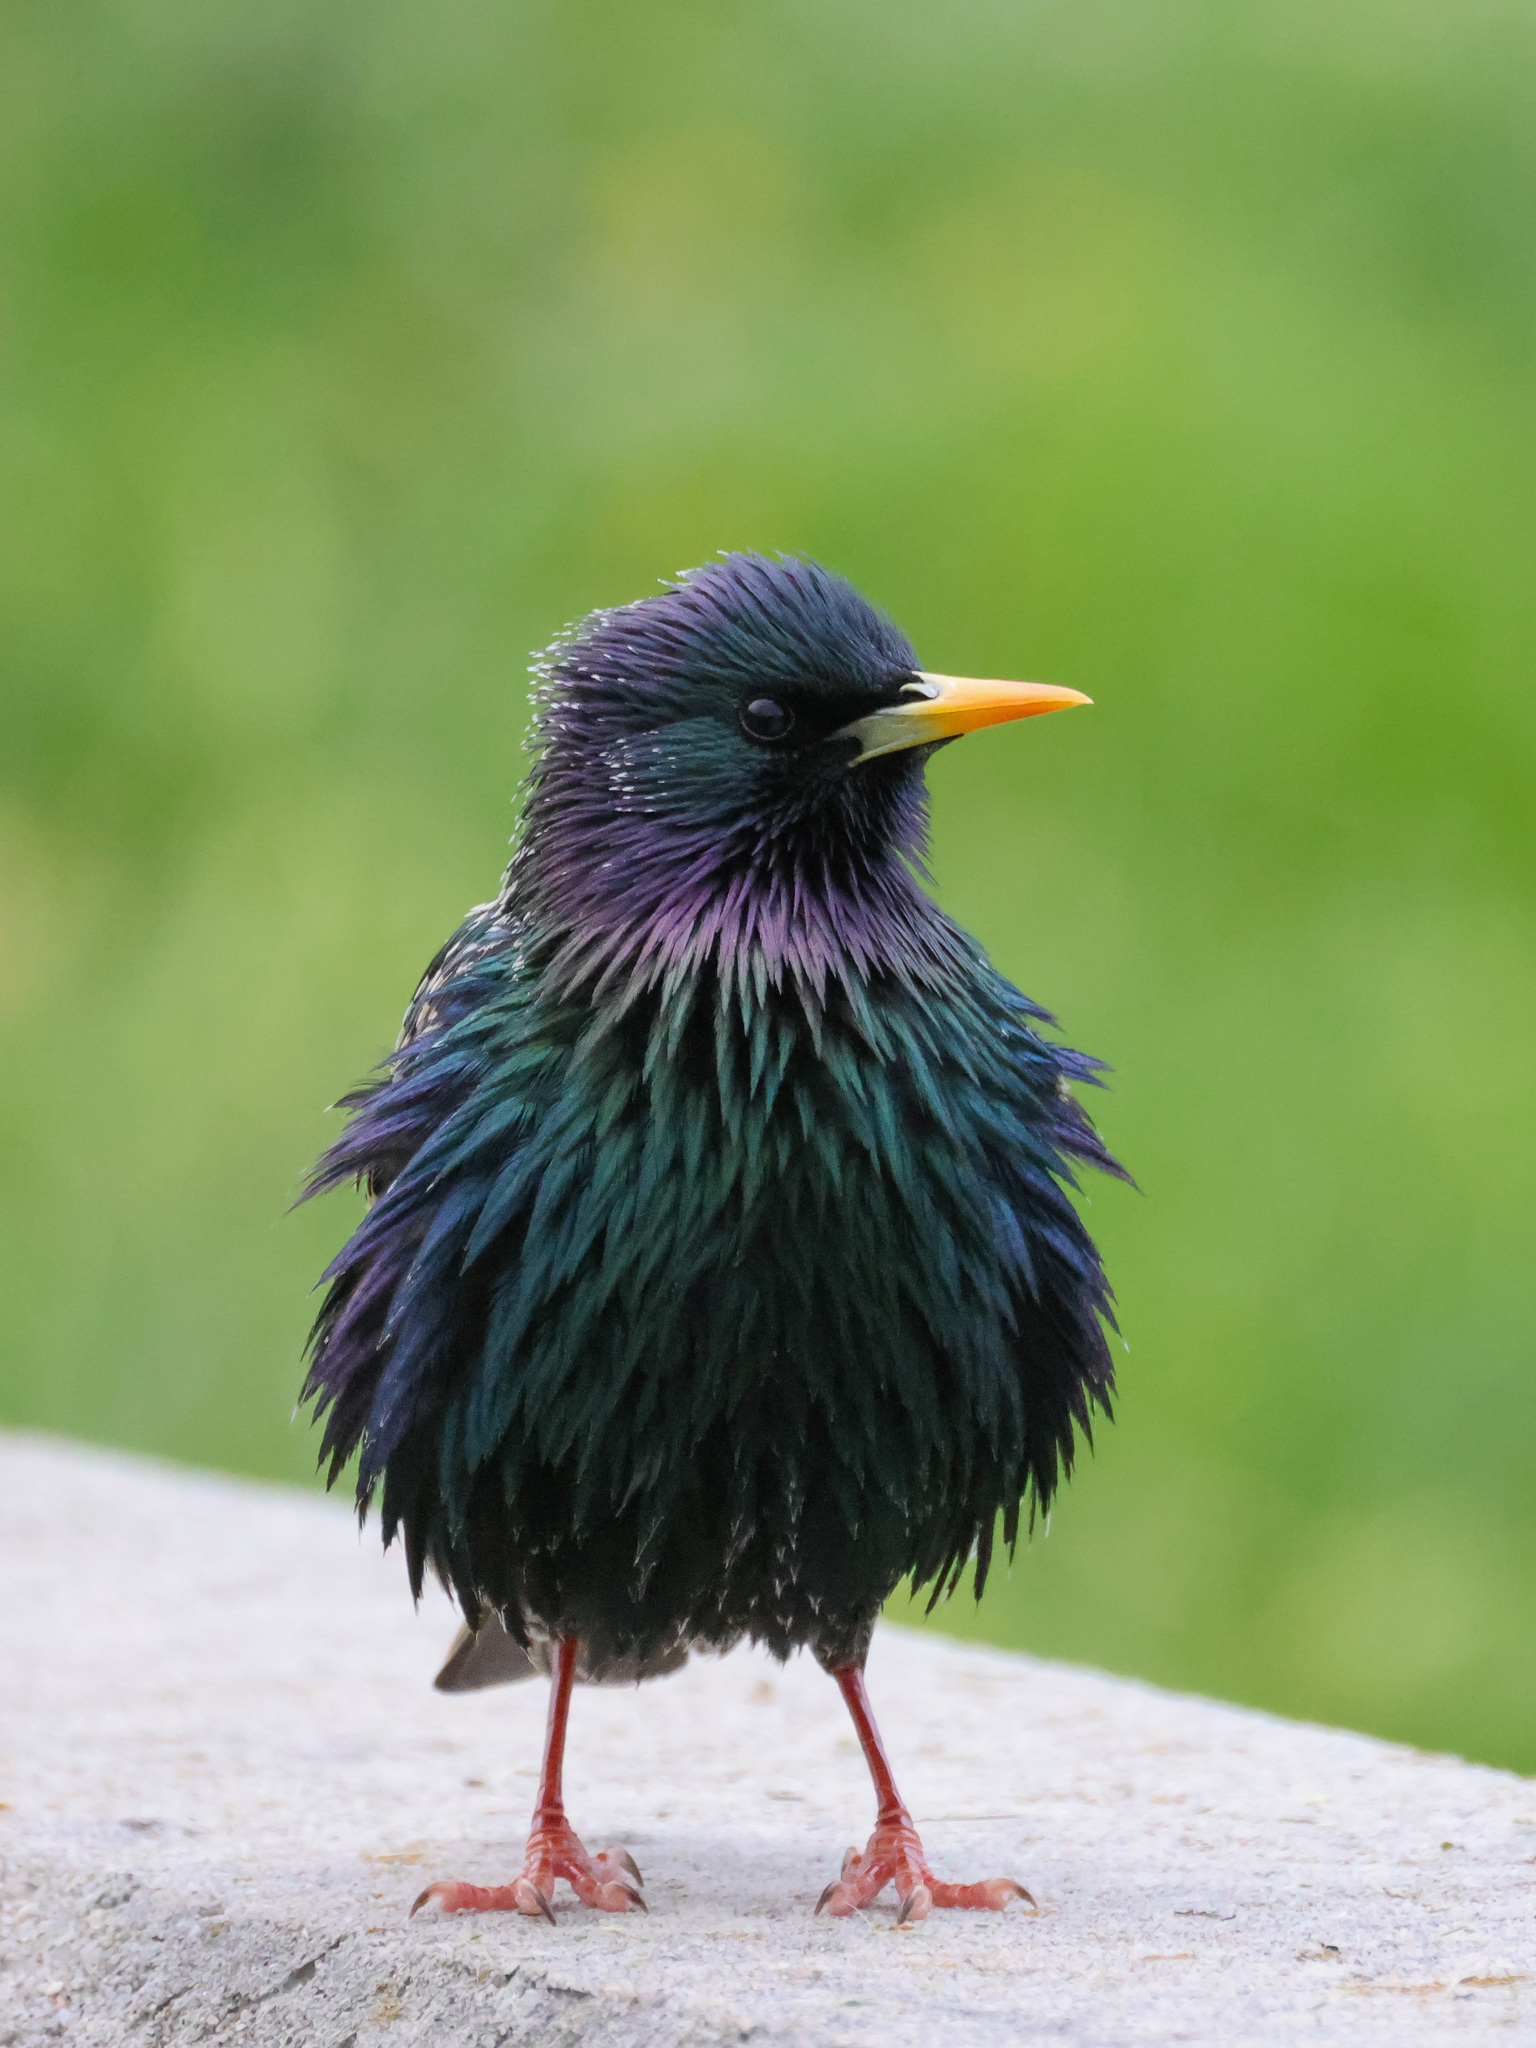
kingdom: Animalia
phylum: Chordata
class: Aves
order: Passeriformes
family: Sturnidae
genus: Sturnus
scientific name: Sturnus vulgaris
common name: Common starling
